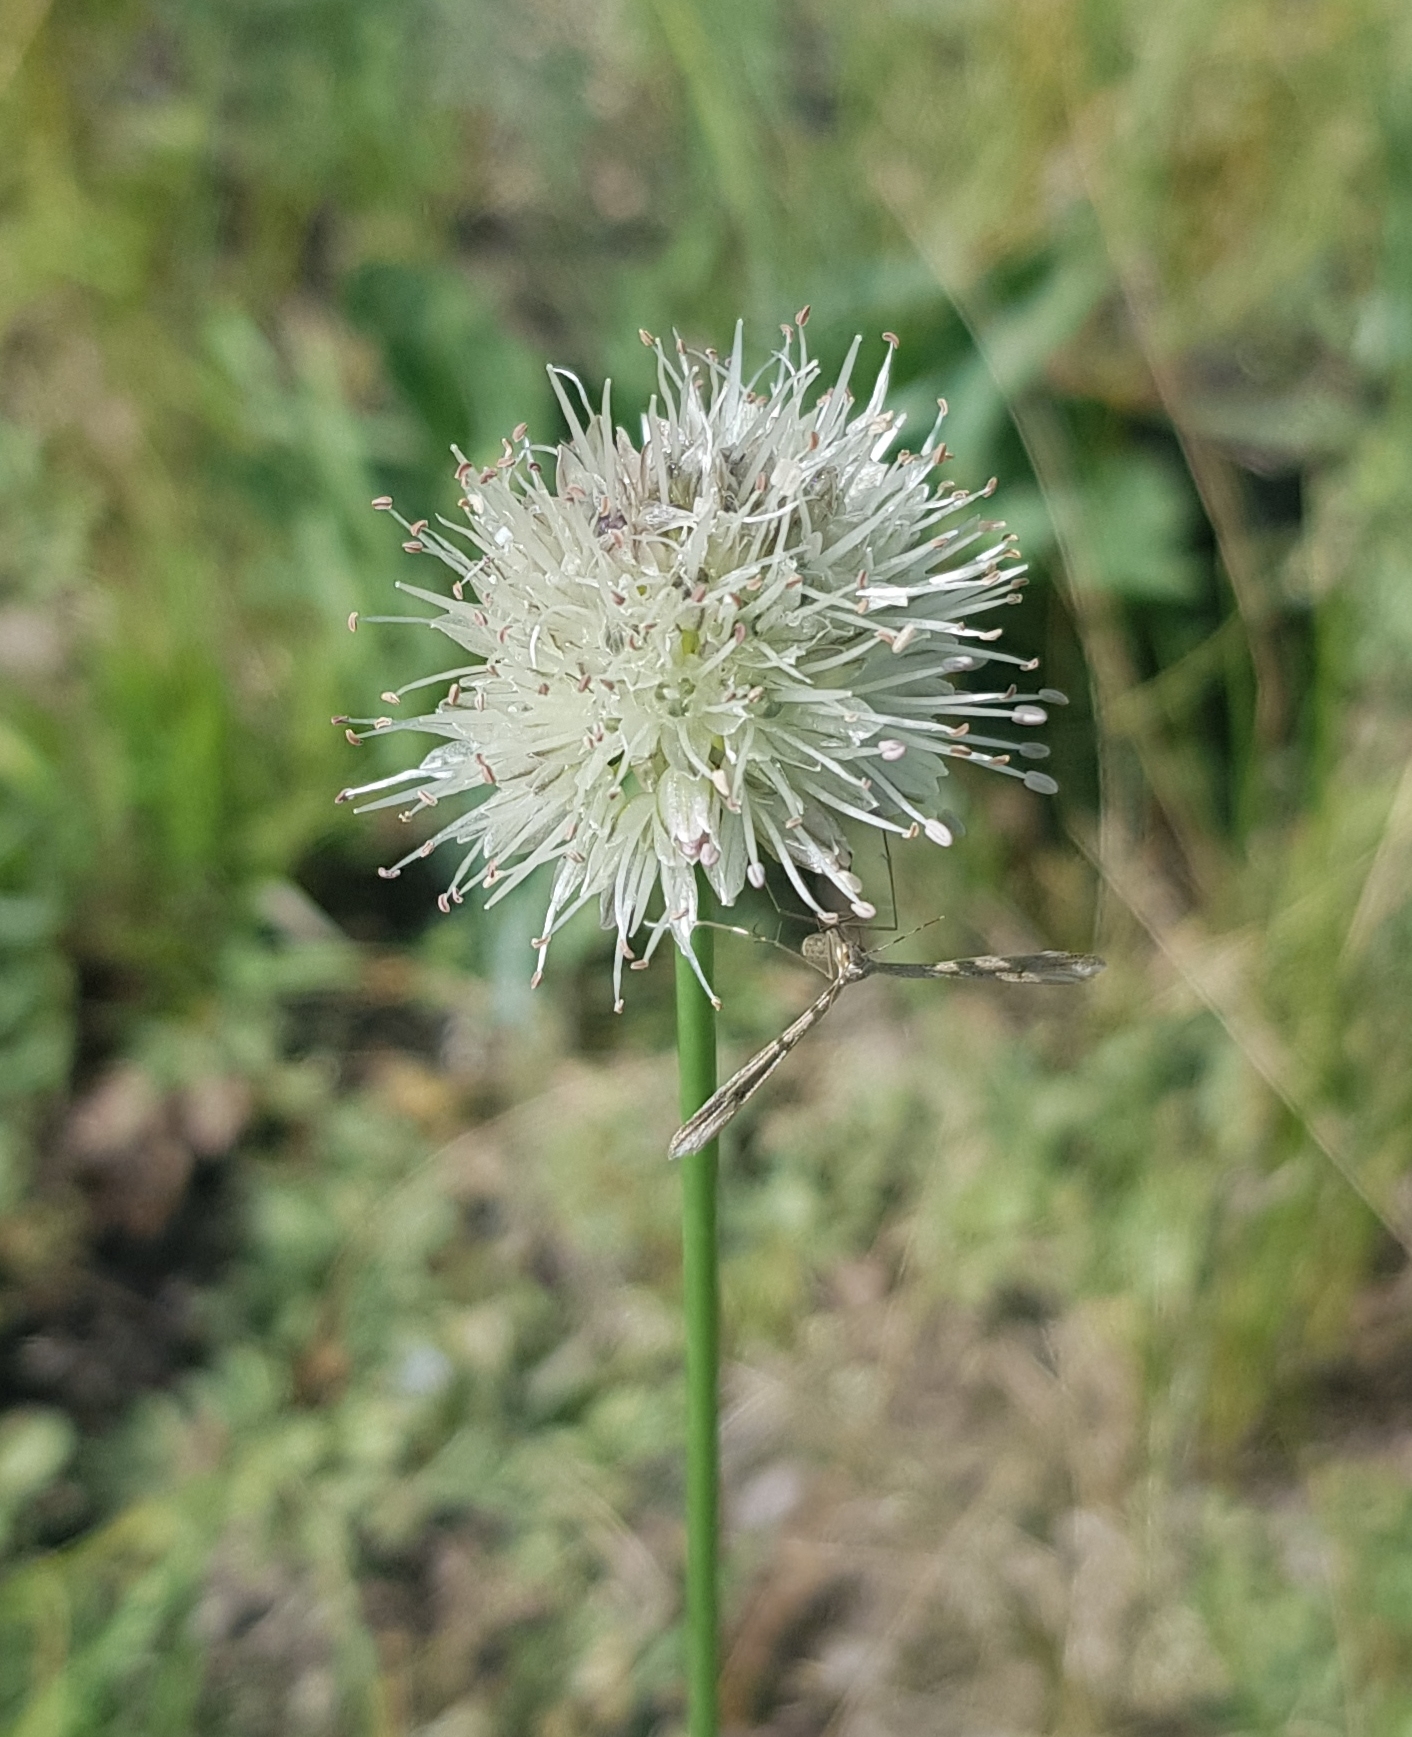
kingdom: Plantae
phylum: Tracheophyta
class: Liliopsida
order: Asparagales
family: Amaryllidaceae
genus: Allium
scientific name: Allium leucocephalum
